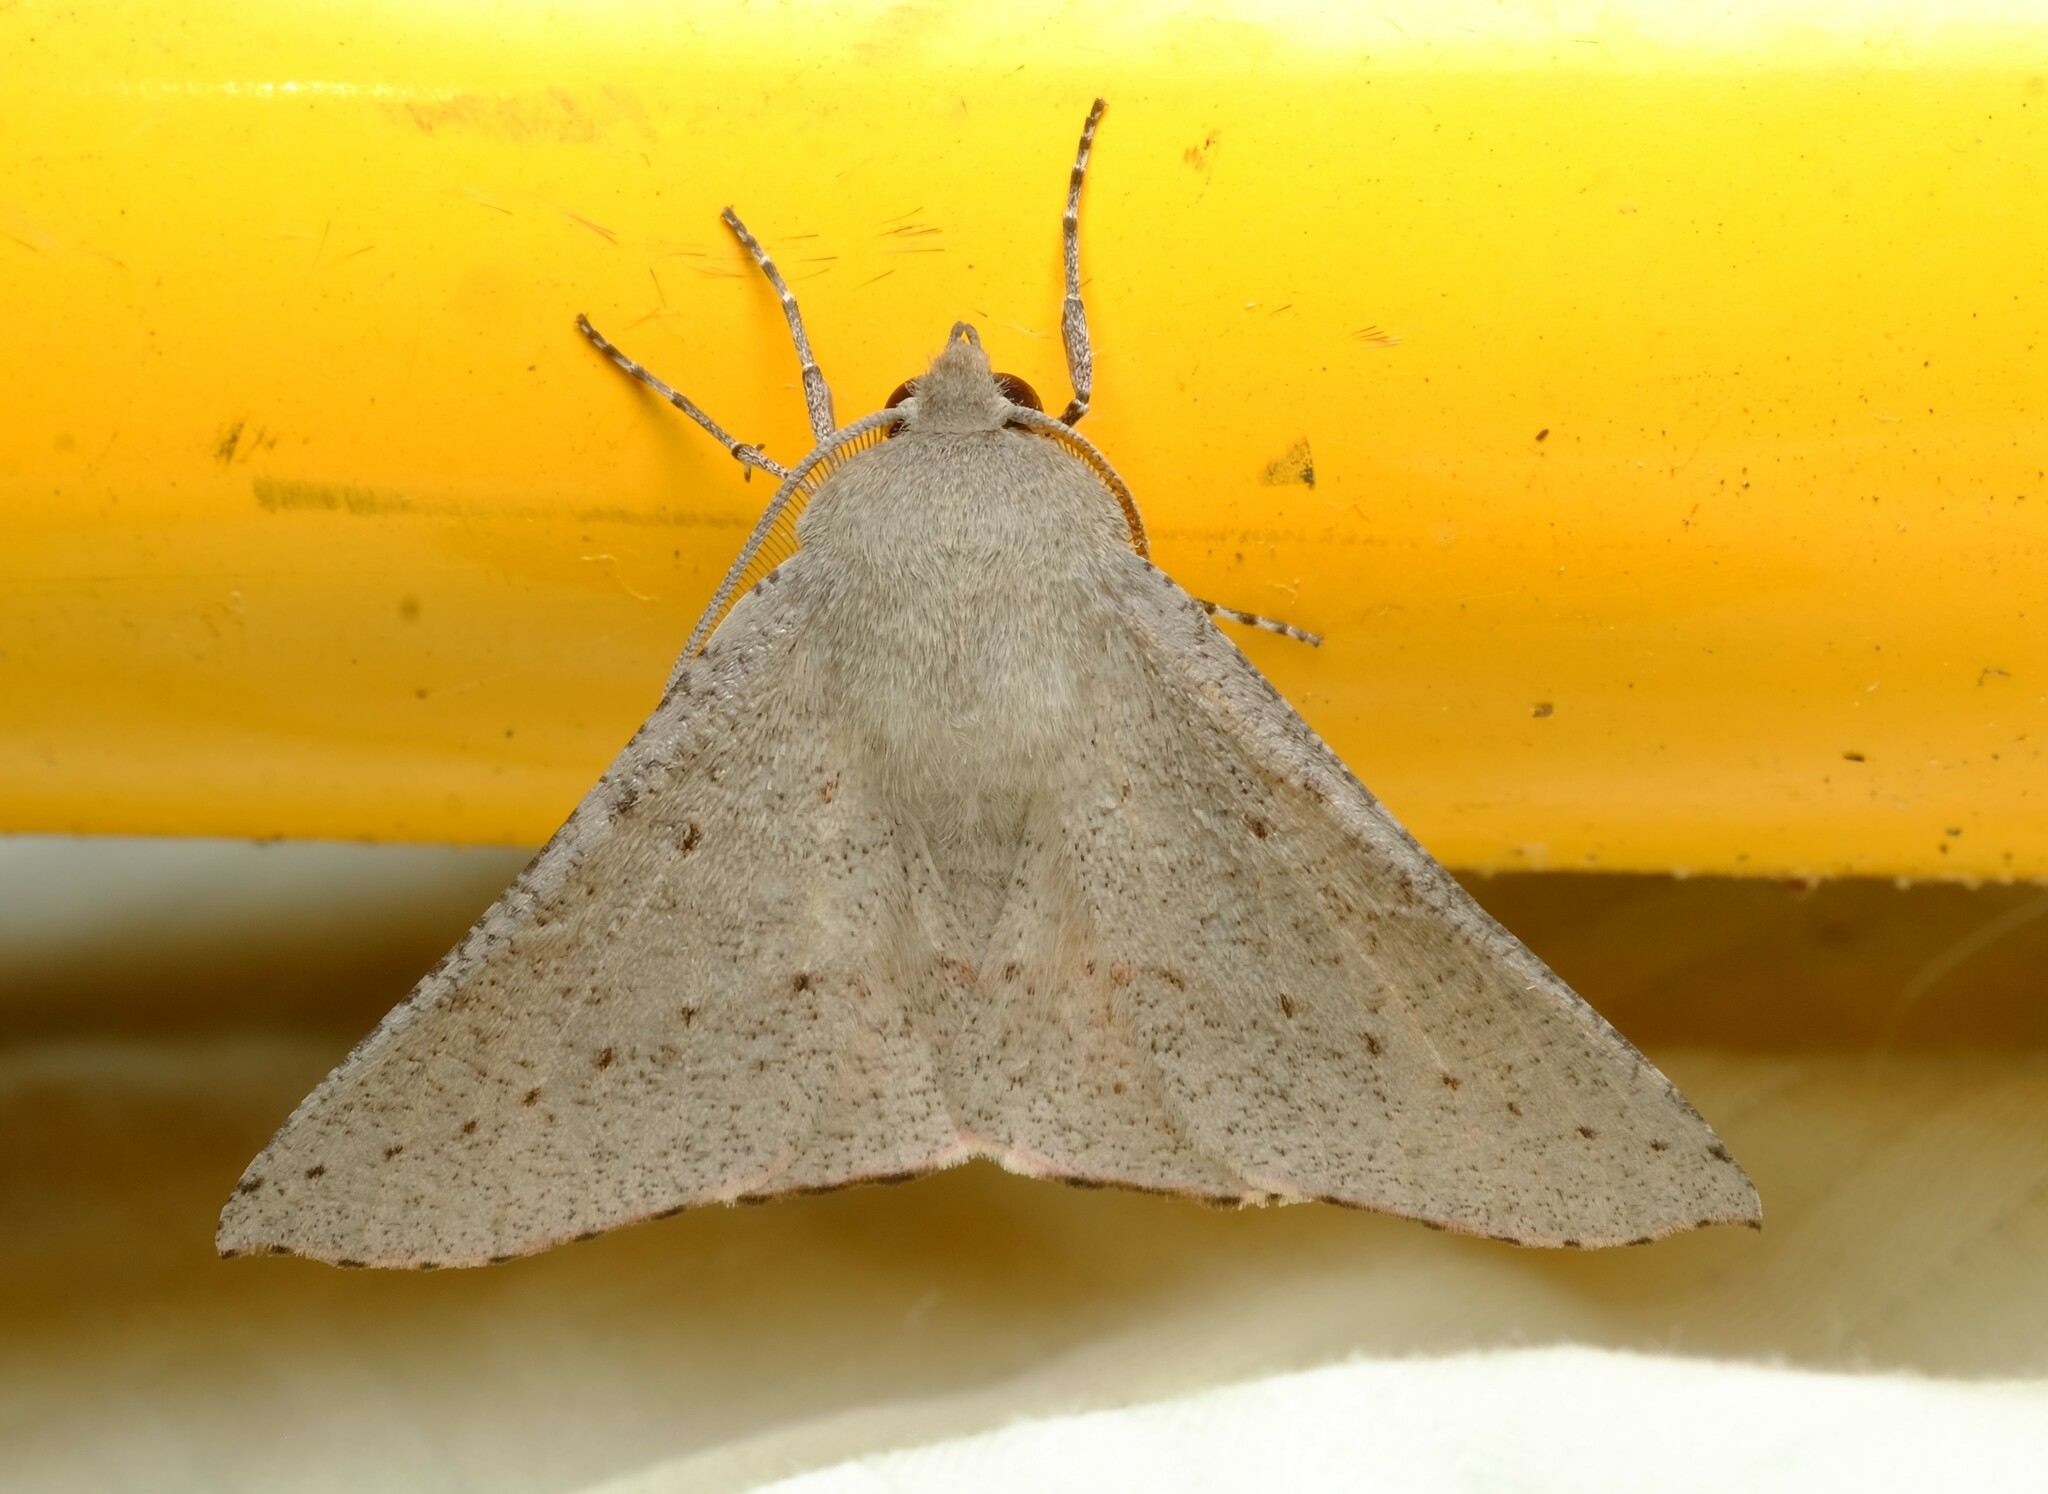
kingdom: Animalia
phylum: Arthropoda
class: Insecta
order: Lepidoptera
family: Geometridae
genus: Oenochroma
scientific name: Oenochroma subustaria
